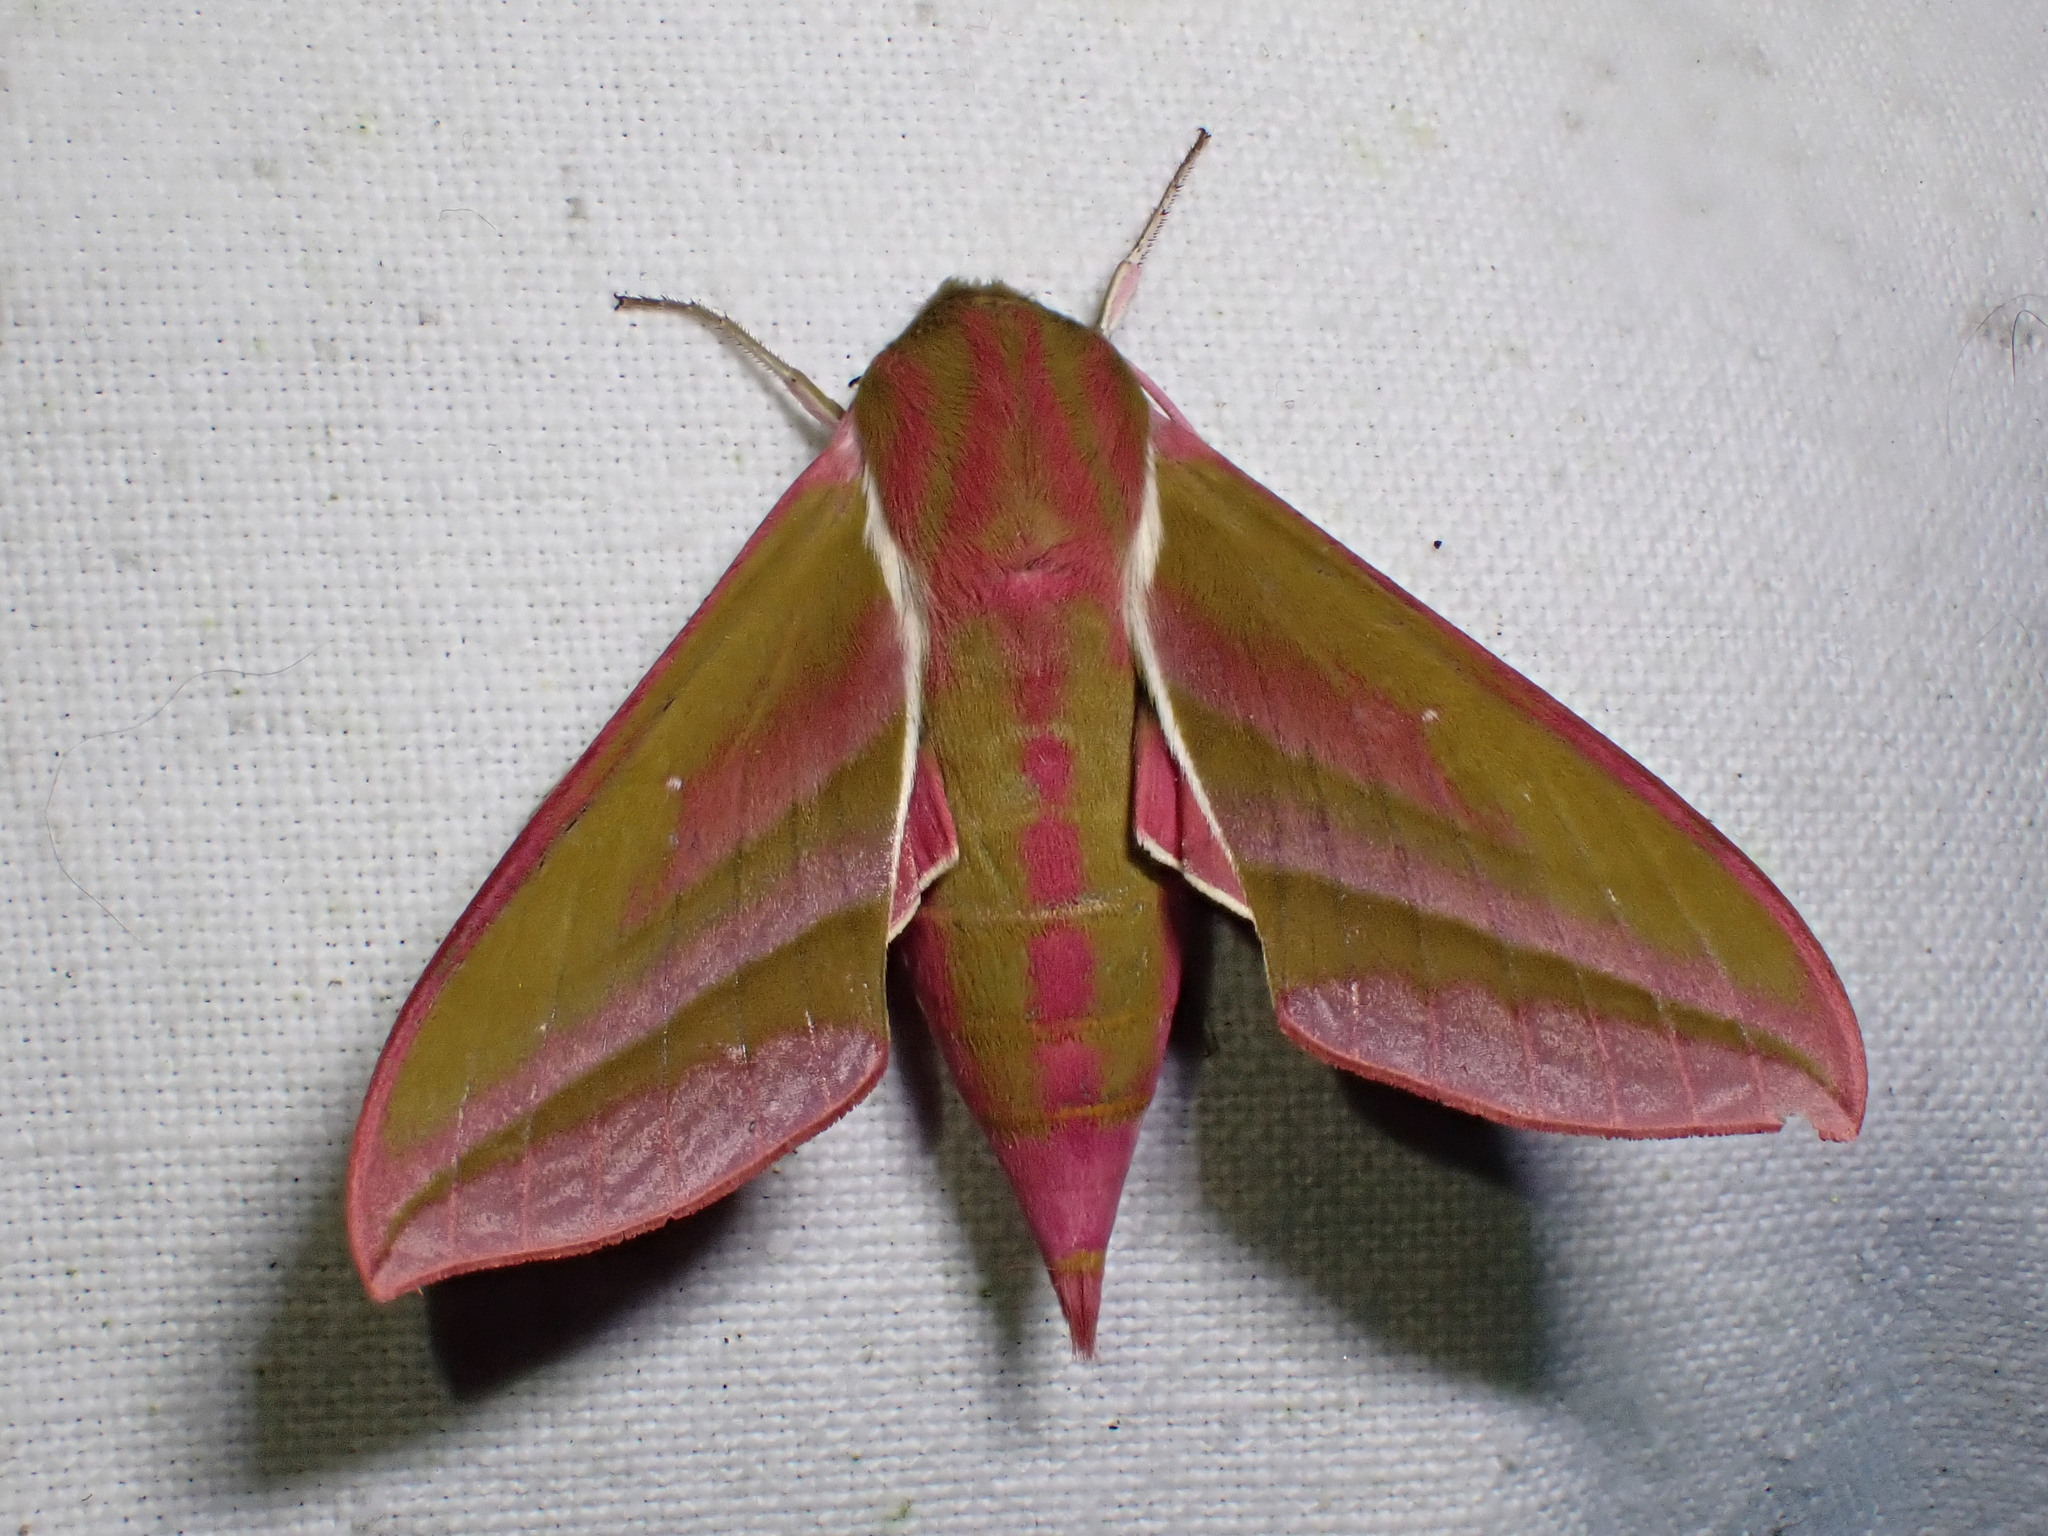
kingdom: Animalia
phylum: Arthropoda
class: Insecta
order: Lepidoptera
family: Sphingidae
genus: Deilephila
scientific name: Deilephila elpenor
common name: Elephant hawk-moth
